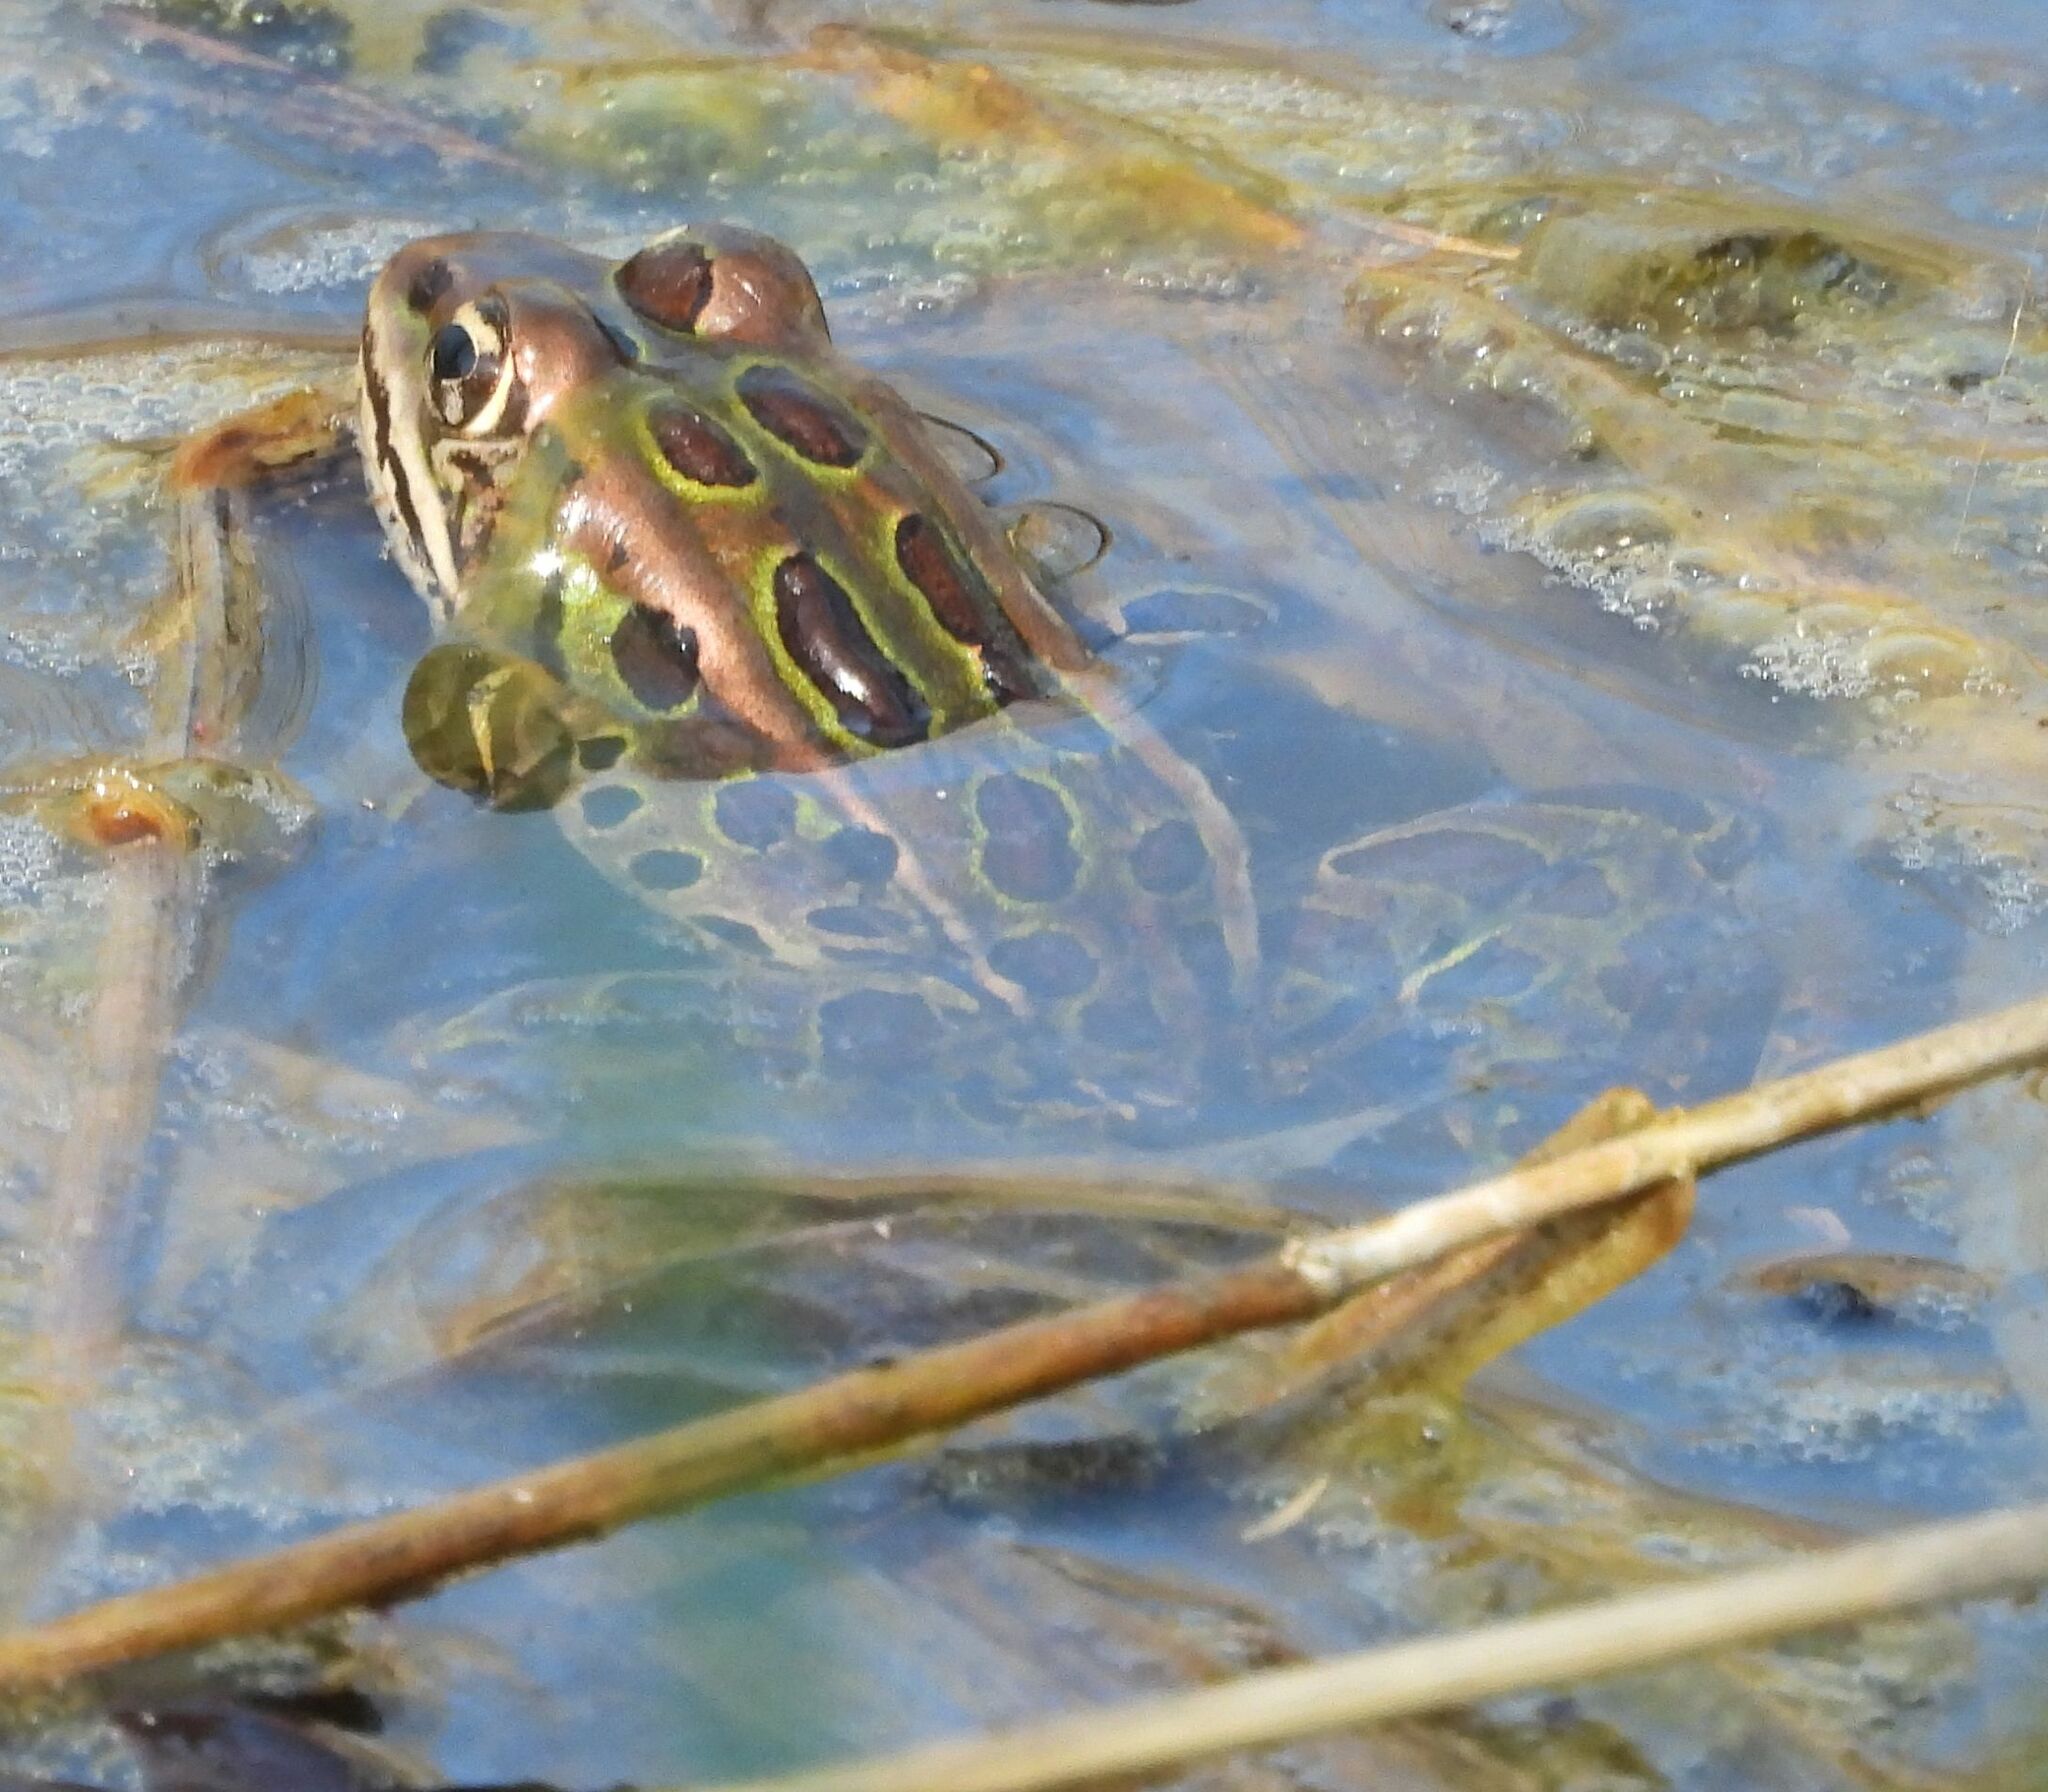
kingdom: Animalia
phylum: Chordata
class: Amphibia
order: Anura
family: Ranidae
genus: Lithobates
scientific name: Lithobates pipiens
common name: Northern leopard frog
